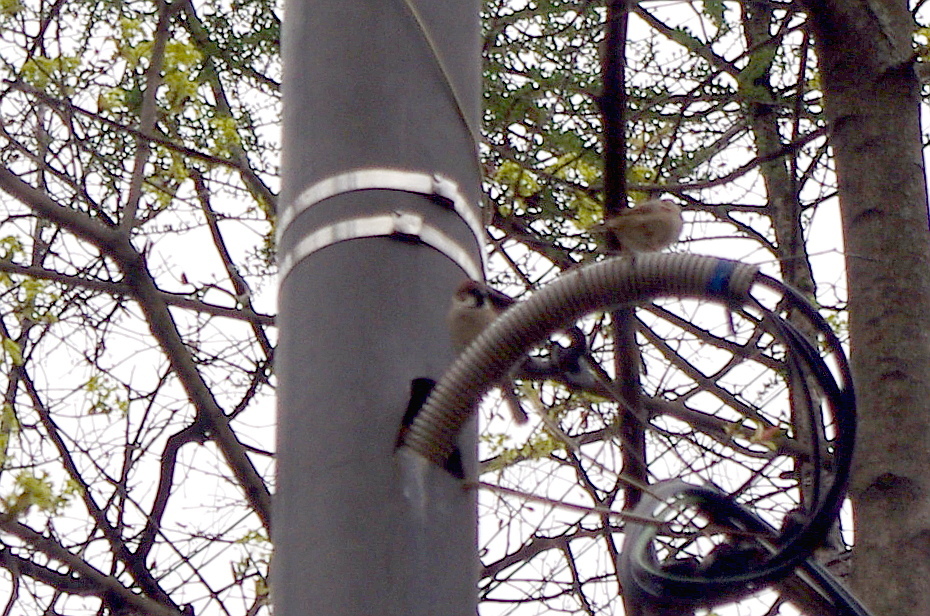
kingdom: Animalia
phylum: Chordata
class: Aves
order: Passeriformes
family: Passeridae
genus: Passer
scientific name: Passer montanus
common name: Eurasian tree sparrow
